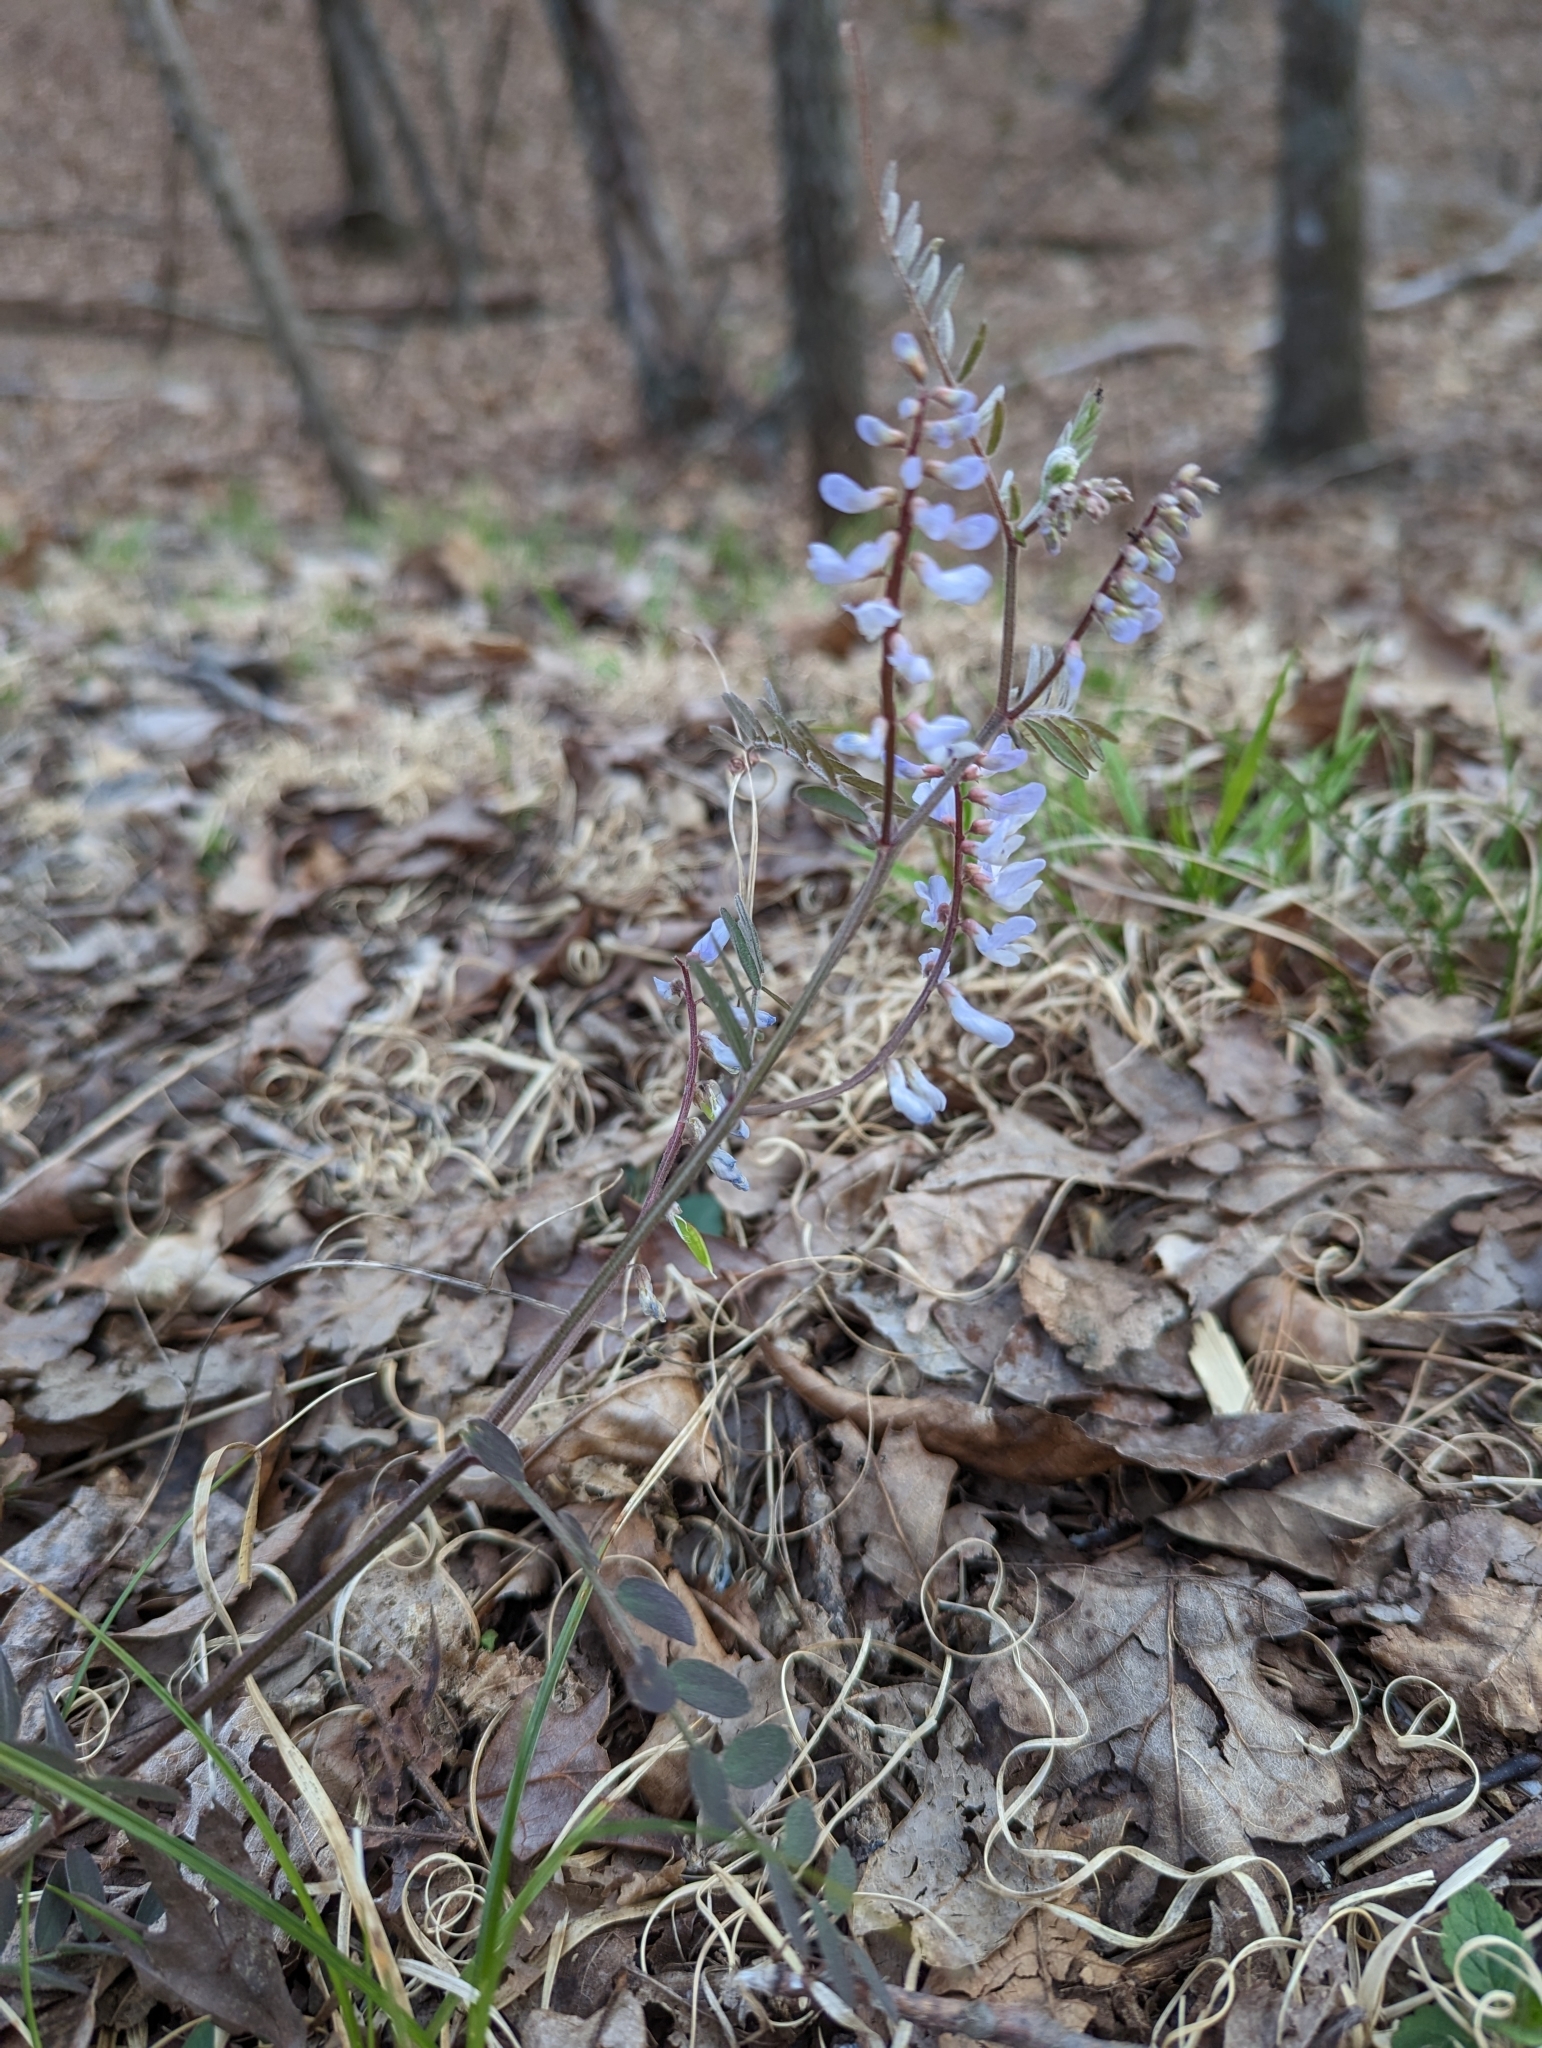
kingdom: Plantae
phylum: Tracheophyta
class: Magnoliopsida
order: Fabales
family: Fabaceae
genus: Vicia
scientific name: Vicia caroliniana
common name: Carolina vetch
